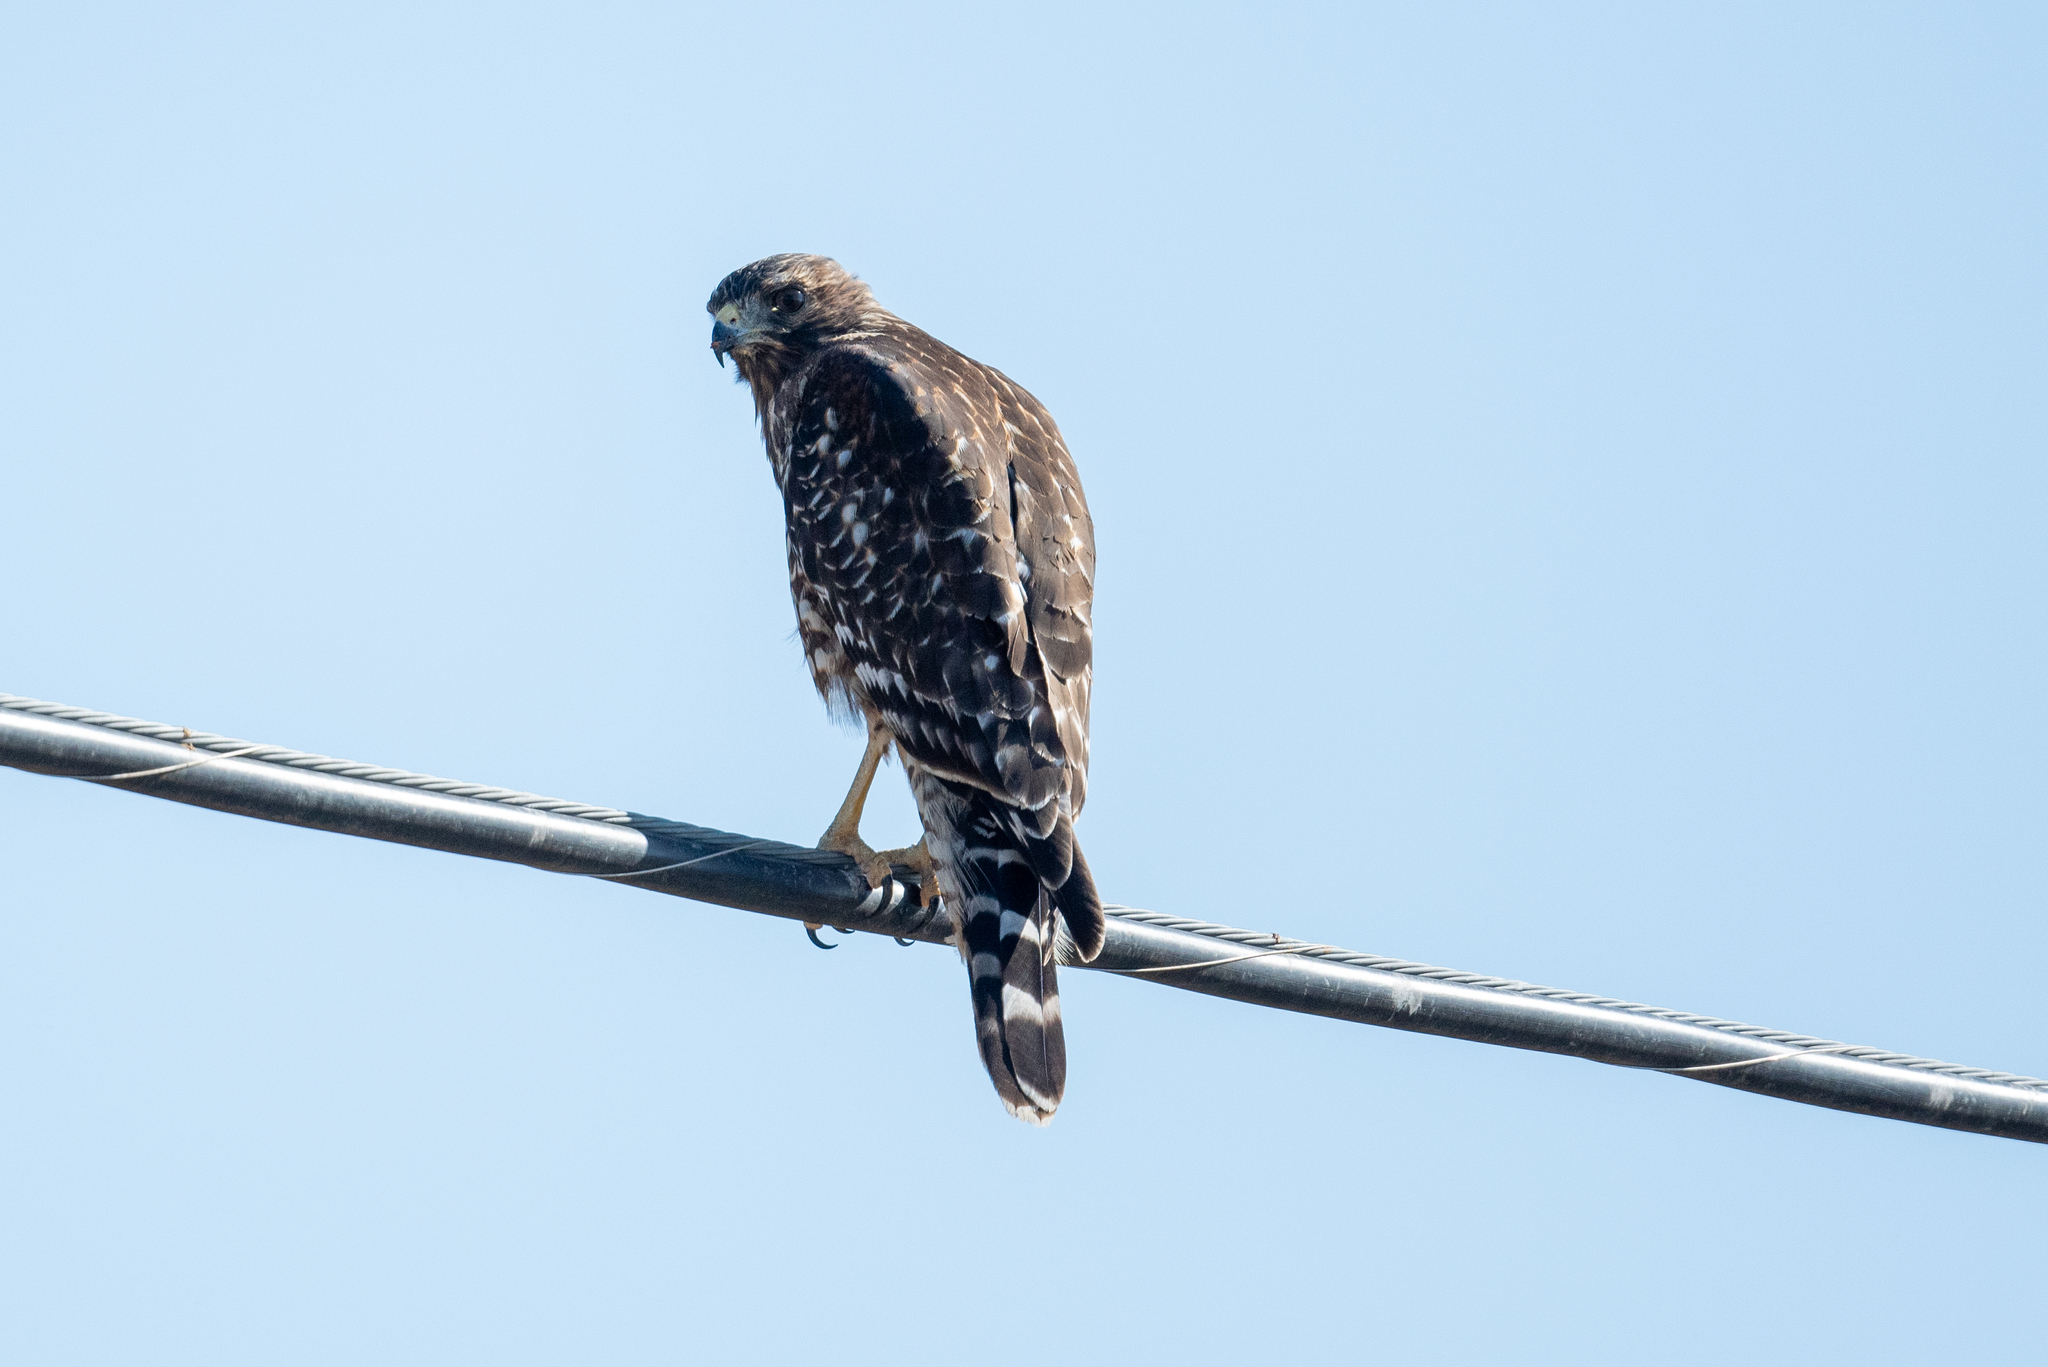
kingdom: Animalia
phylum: Chordata
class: Aves
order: Accipitriformes
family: Accipitridae
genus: Buteo
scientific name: Buteo lineatus
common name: Red-shouldered hawk
